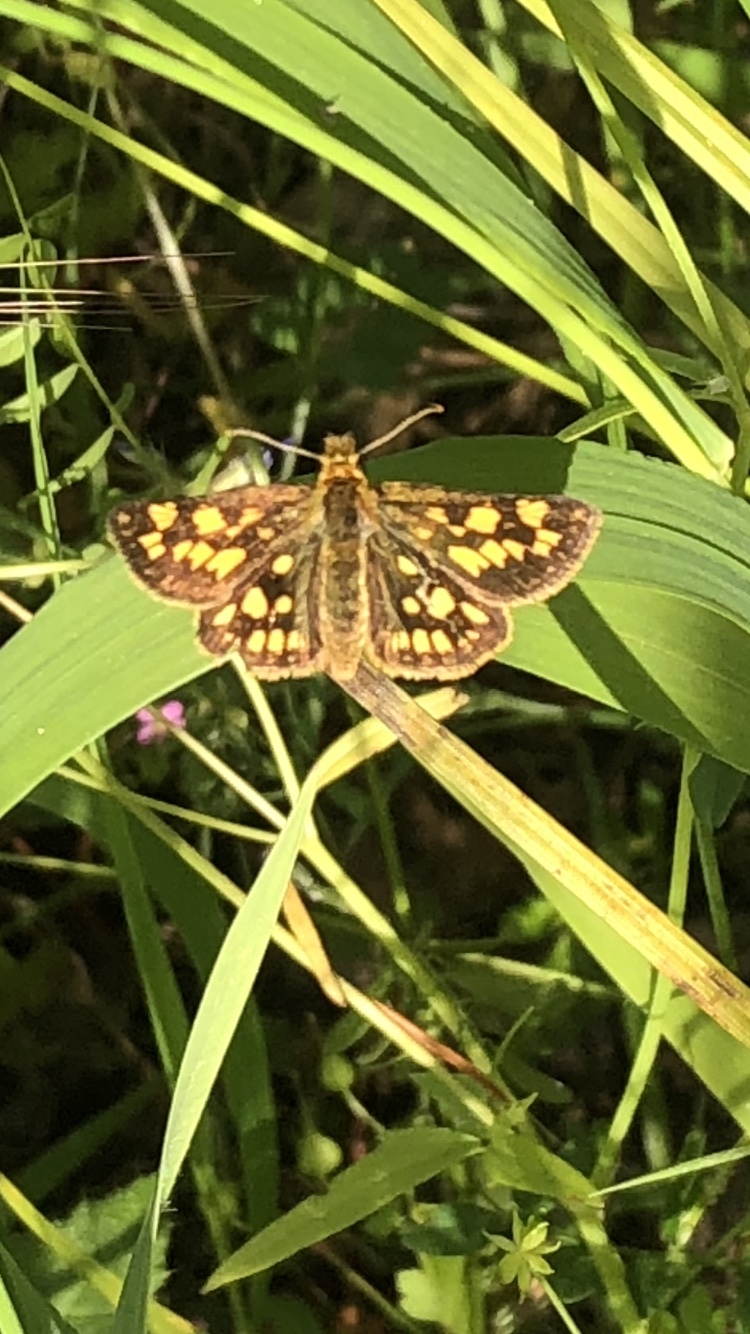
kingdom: Animalia
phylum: Arthropoda
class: Insecta
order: Lepidoptera
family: Hesperiidae
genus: Carterocephalus
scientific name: Carterocephalus skada
